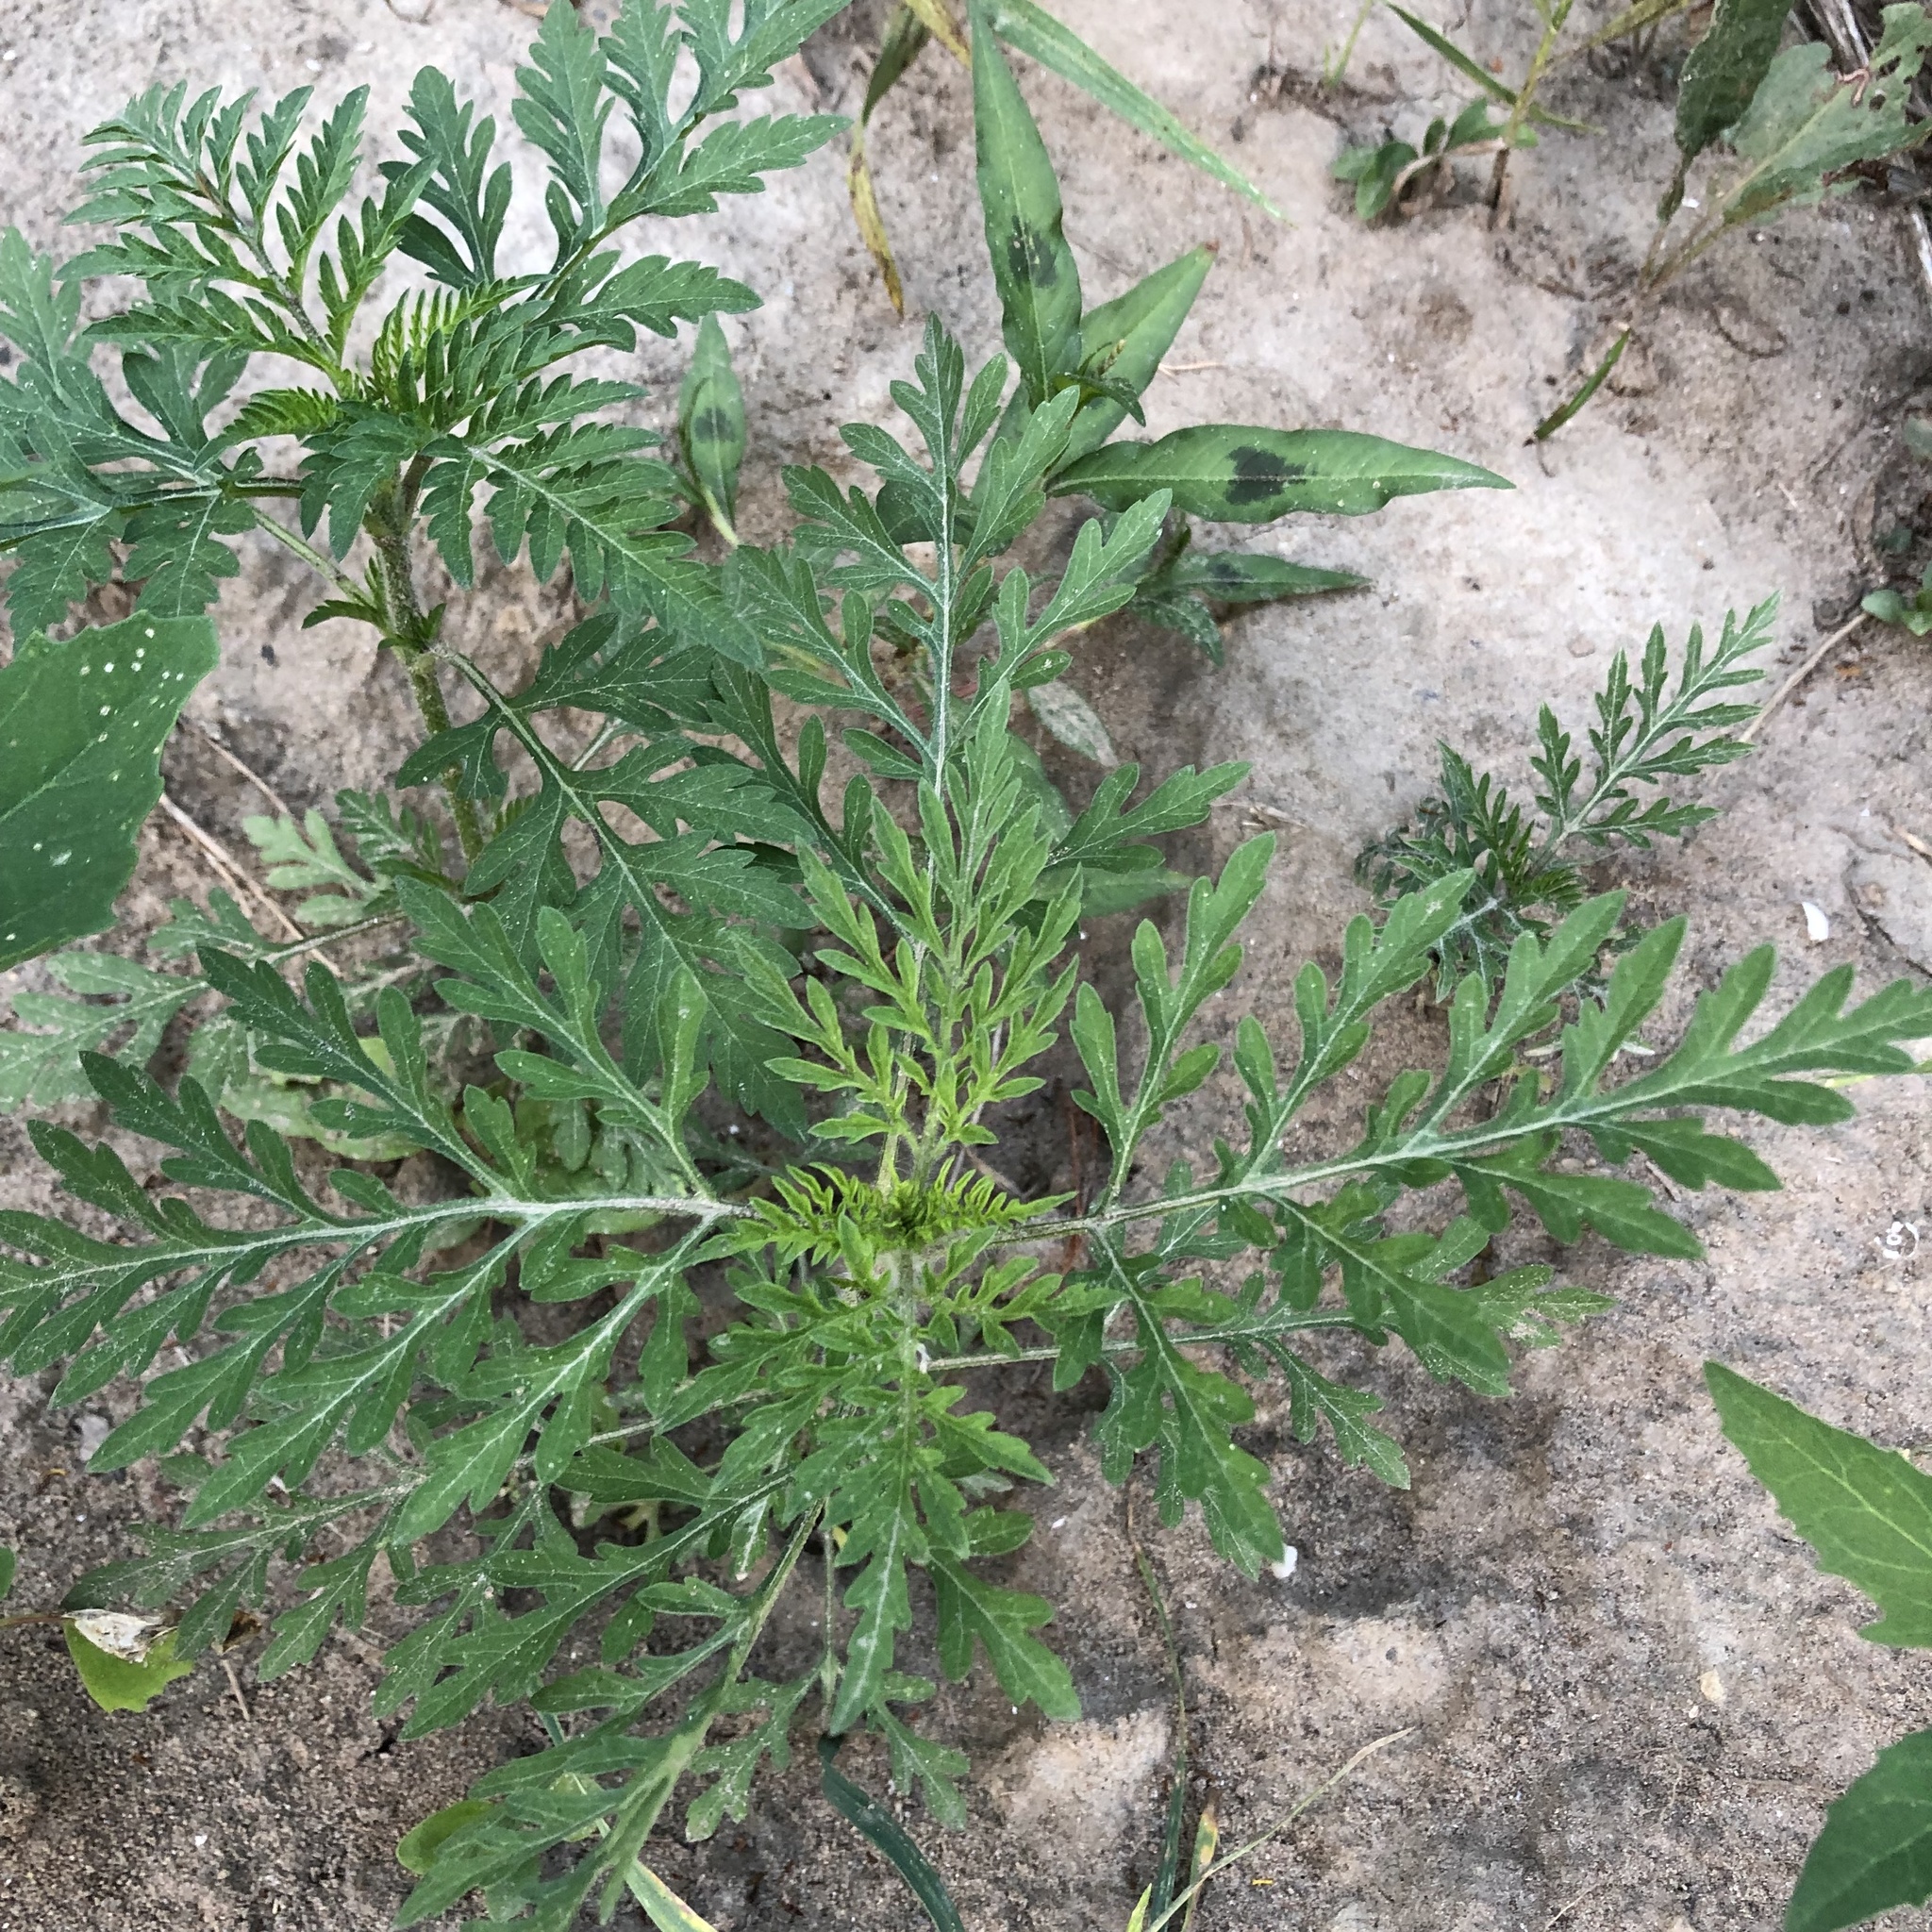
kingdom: Plantae
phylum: Tracheophyta
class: Magnoliopsida
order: Asterales
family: Asteraceae
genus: Ambrosia
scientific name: Ambrosia artemisiifolia
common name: Annual ragweed
